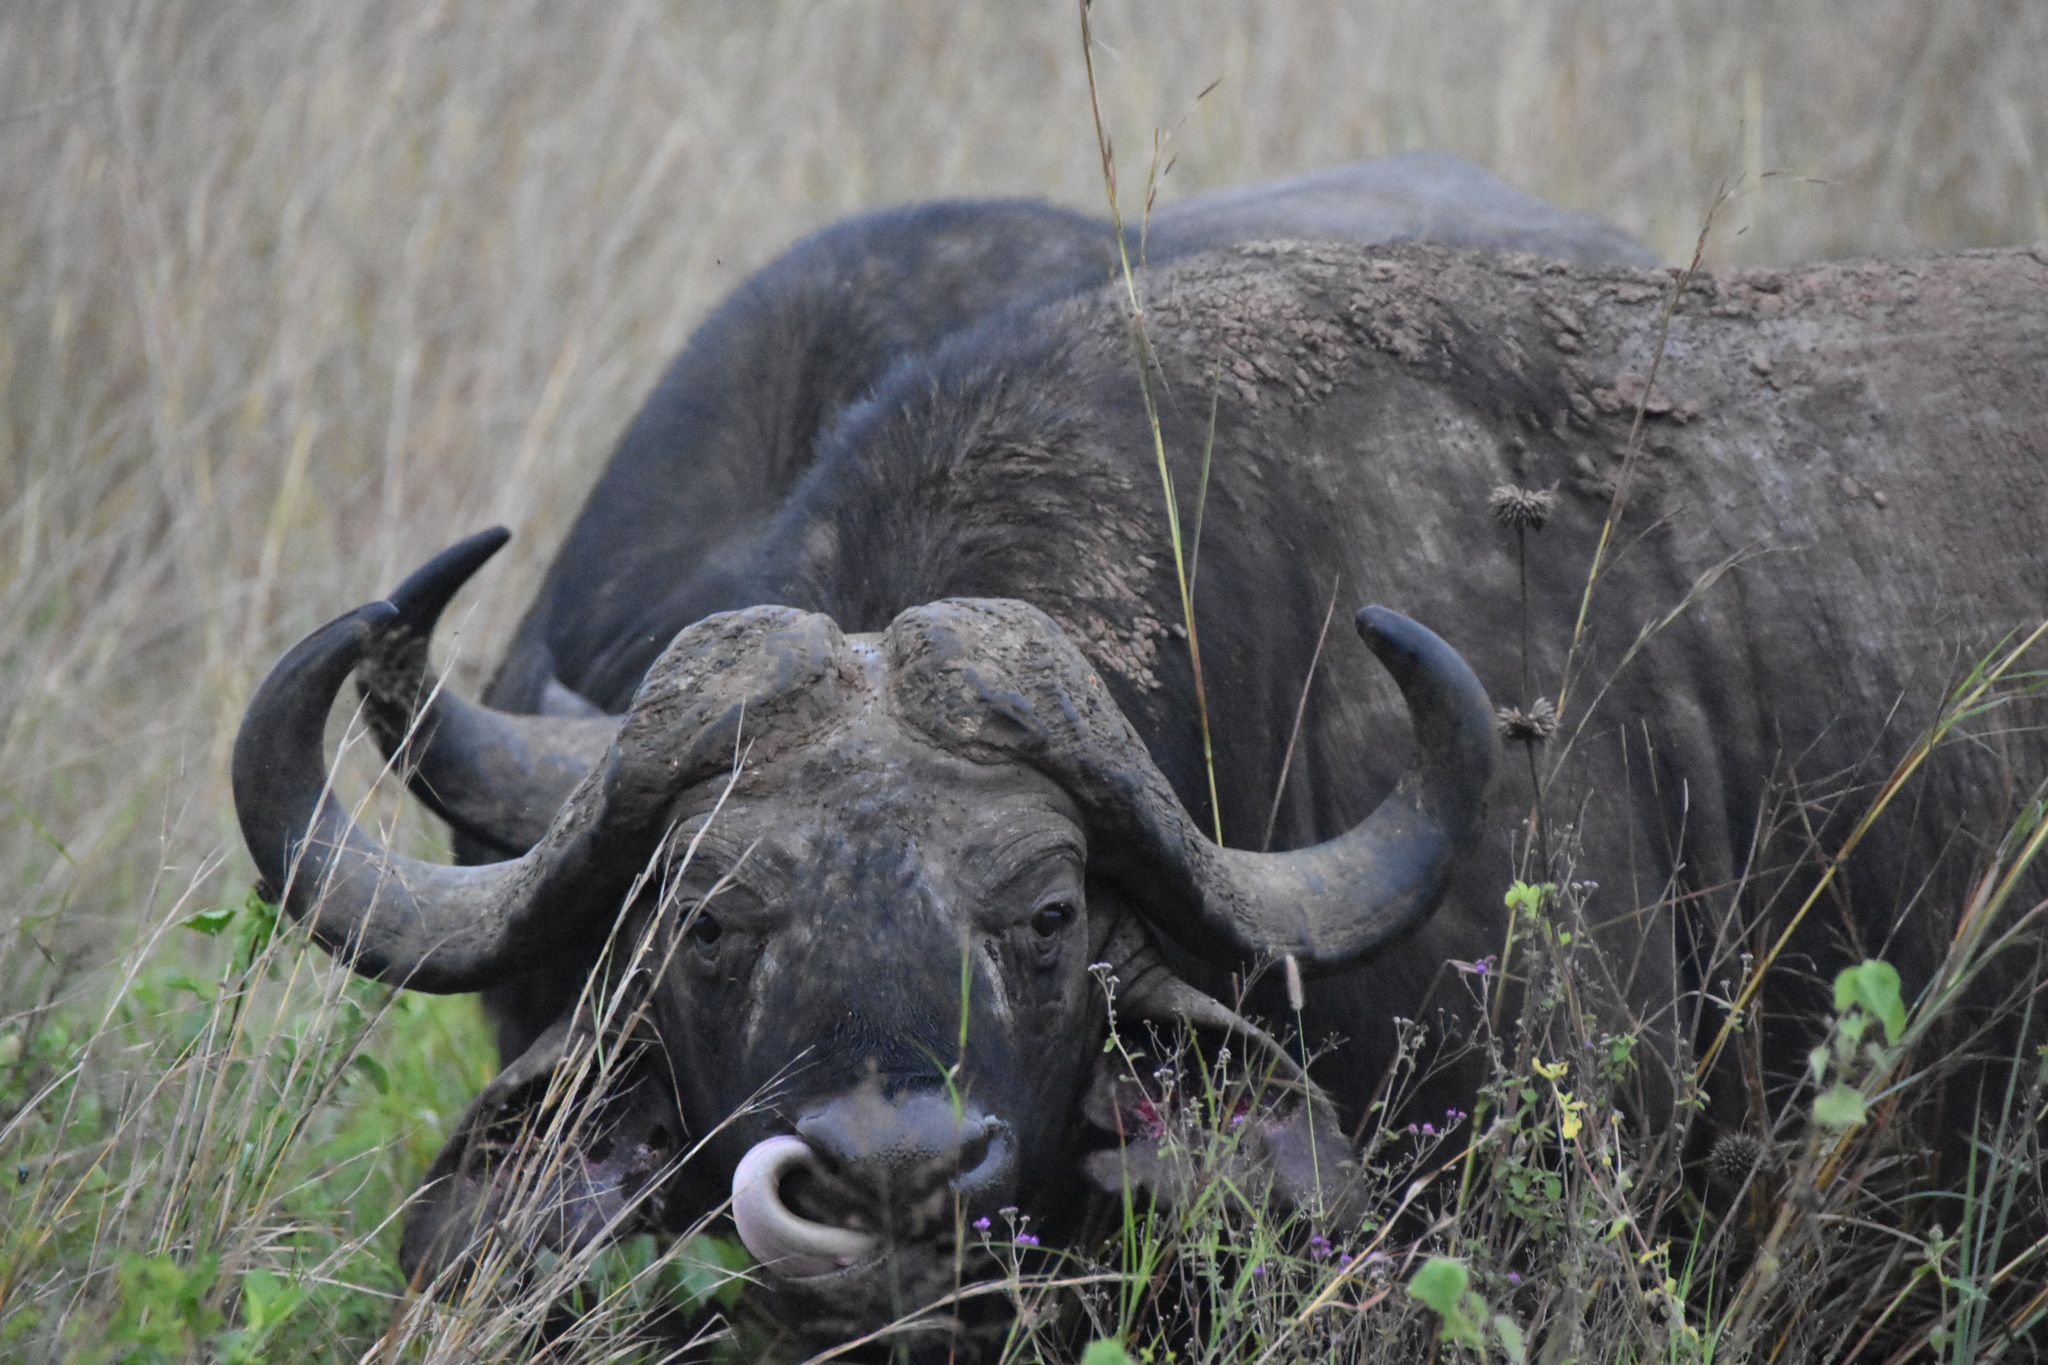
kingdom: Animalia
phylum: Chordata
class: Mammalia
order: Artiodactyla
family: Bovidae
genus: Syncerus
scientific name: Syncerus caffer
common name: African buffalo
